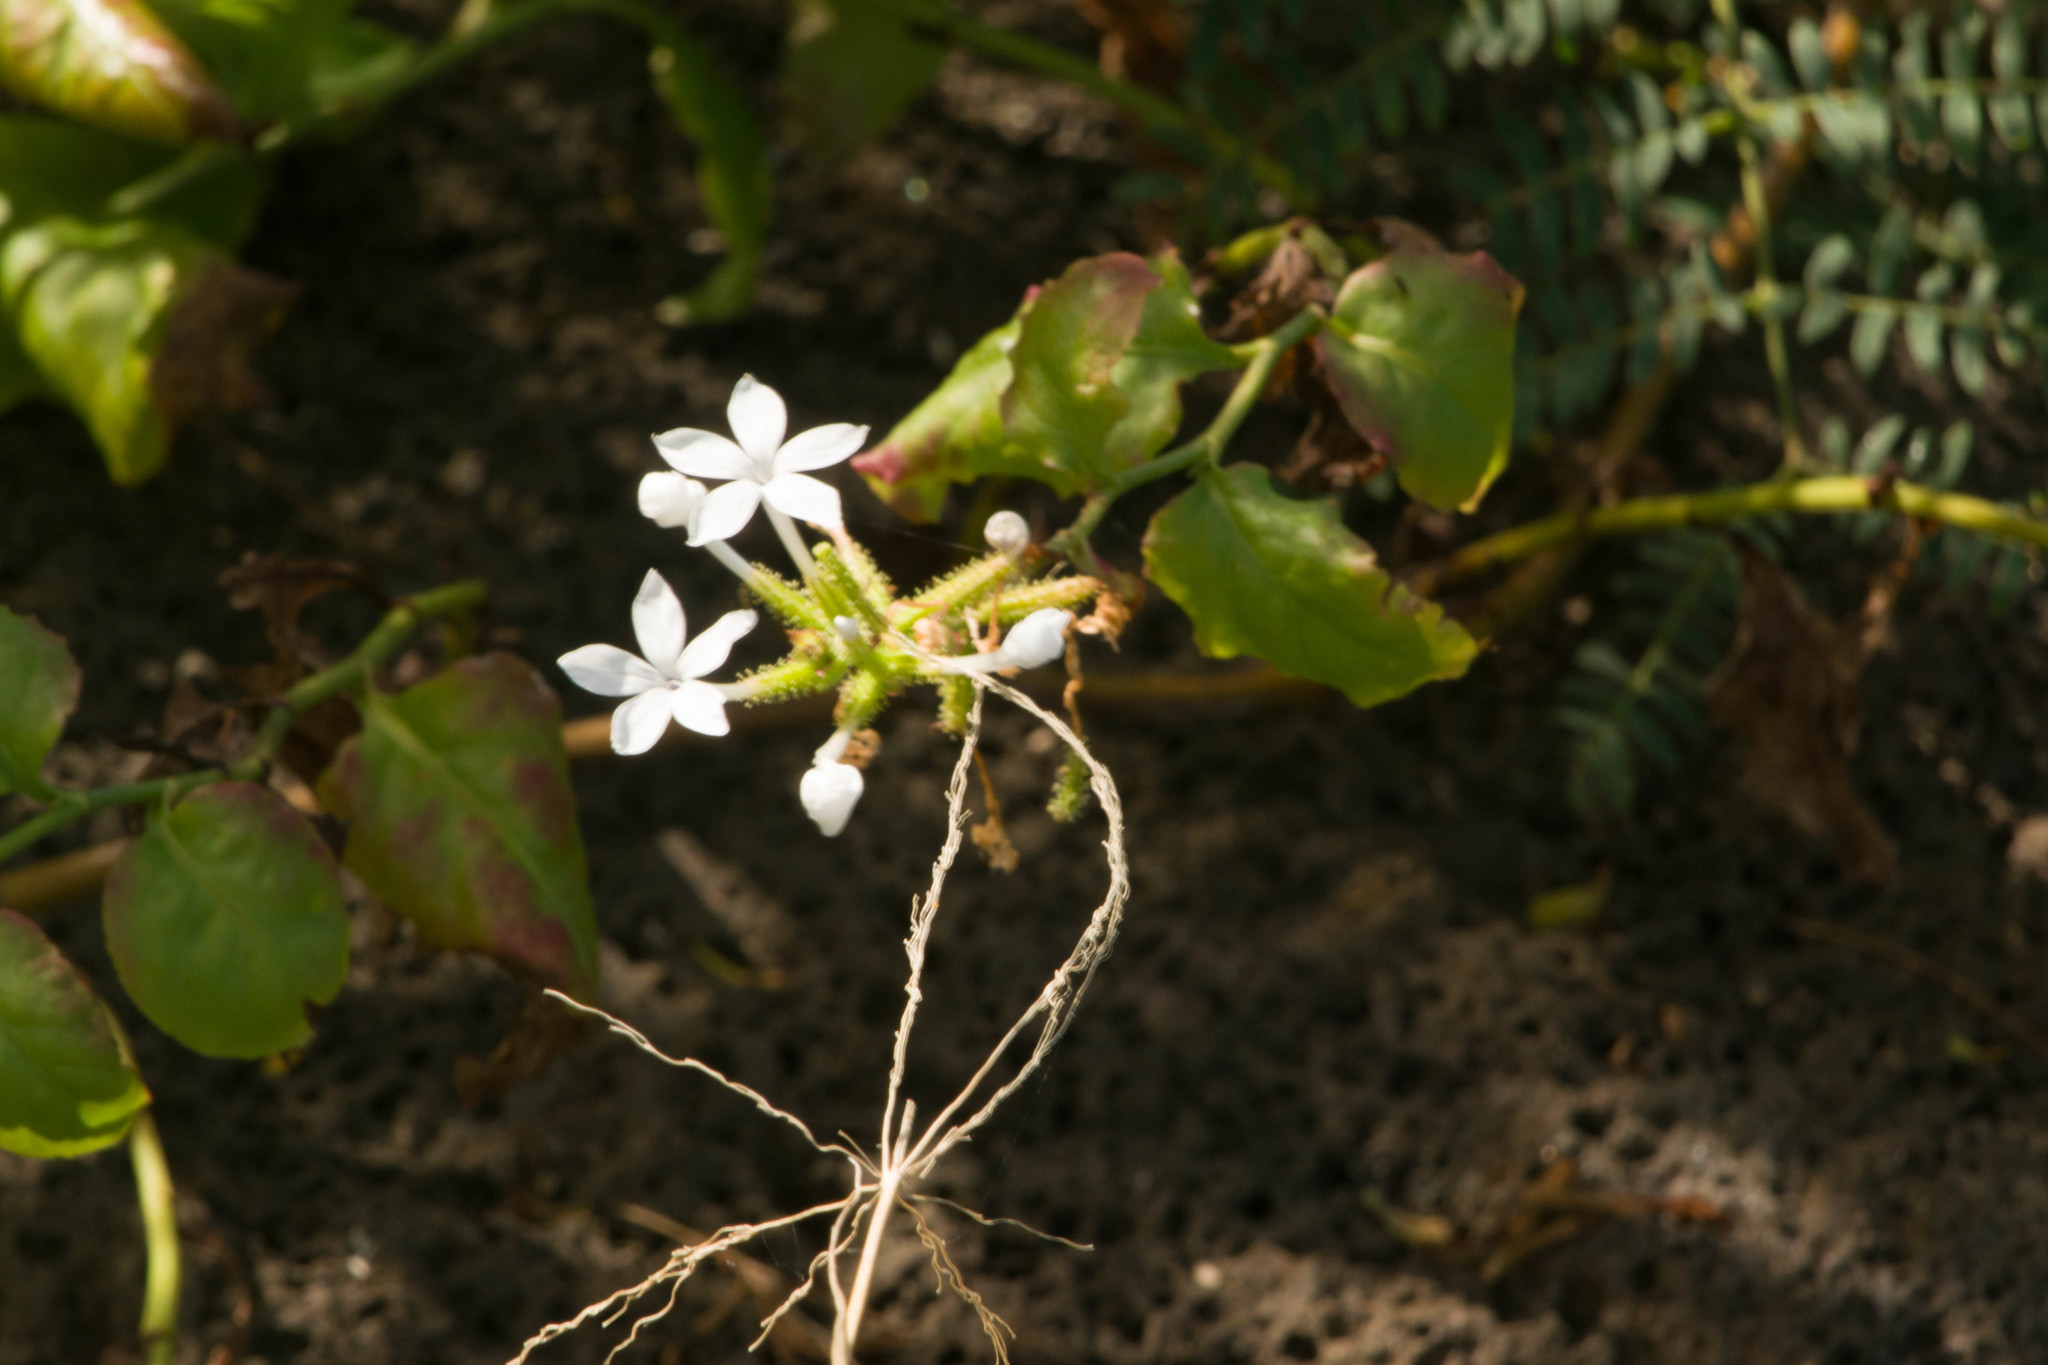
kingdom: Plantae
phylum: Tracheophyta
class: Magnoliopsida
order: Caryophyllales
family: Plumbaginaceae
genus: Plumbago
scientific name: Plumbago zeylanica
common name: Doctorbush
